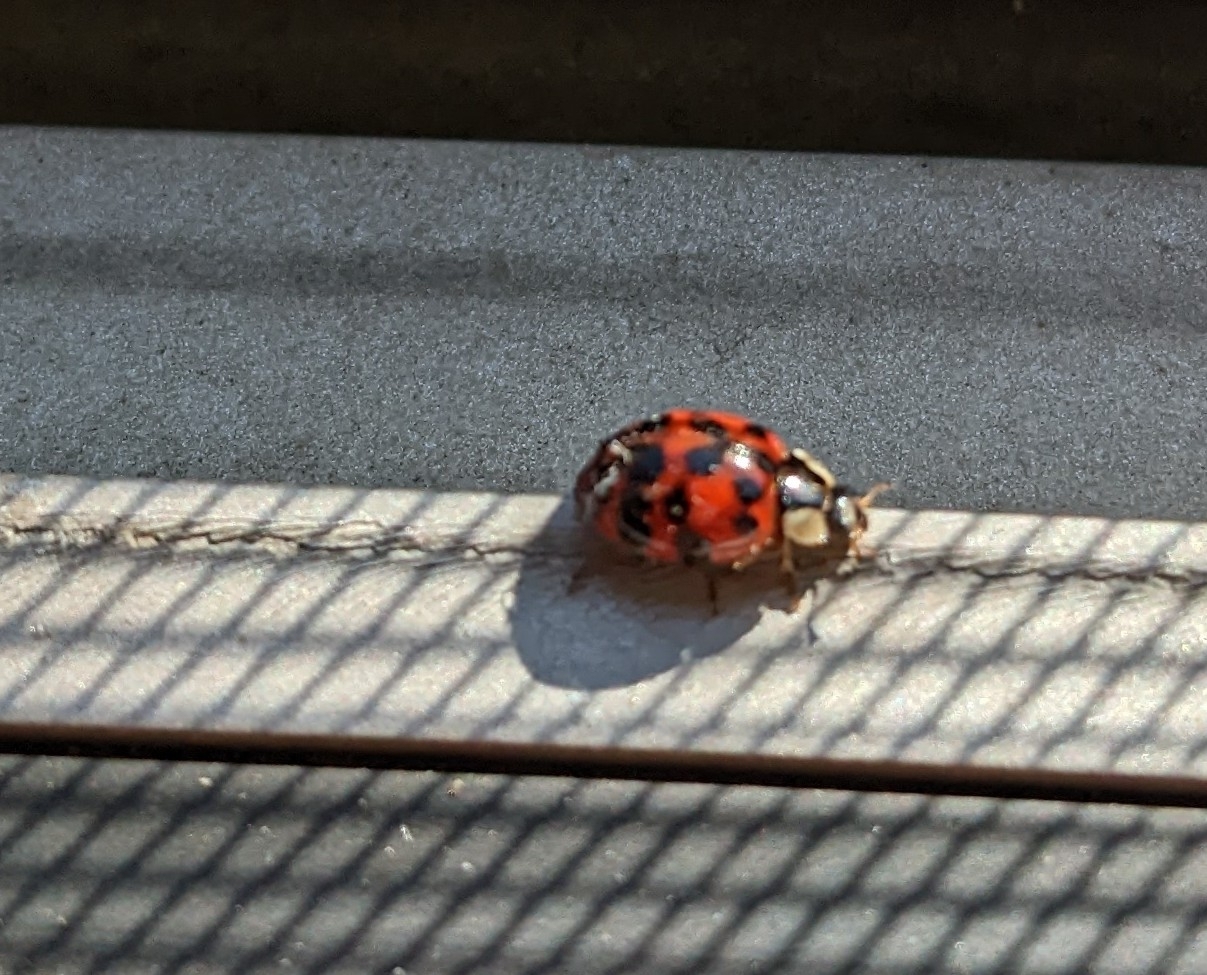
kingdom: Animalia
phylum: Arthropoda
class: Insecta
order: Coleoptera
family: Coccinellidae
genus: Harmonia
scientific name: Harmonia axyridis
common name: Harlequin ladybird
